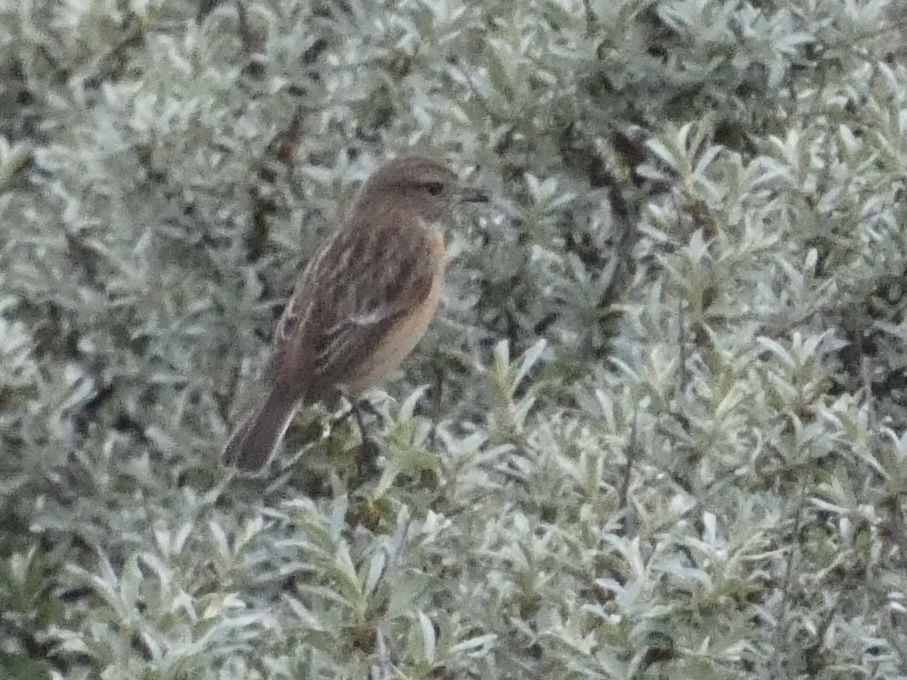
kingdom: Animalia
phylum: Chordata
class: Aves
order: Passeriformes
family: Muscicapidae
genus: Saxicola
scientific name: Saxicola rubicola
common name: European stonechat
